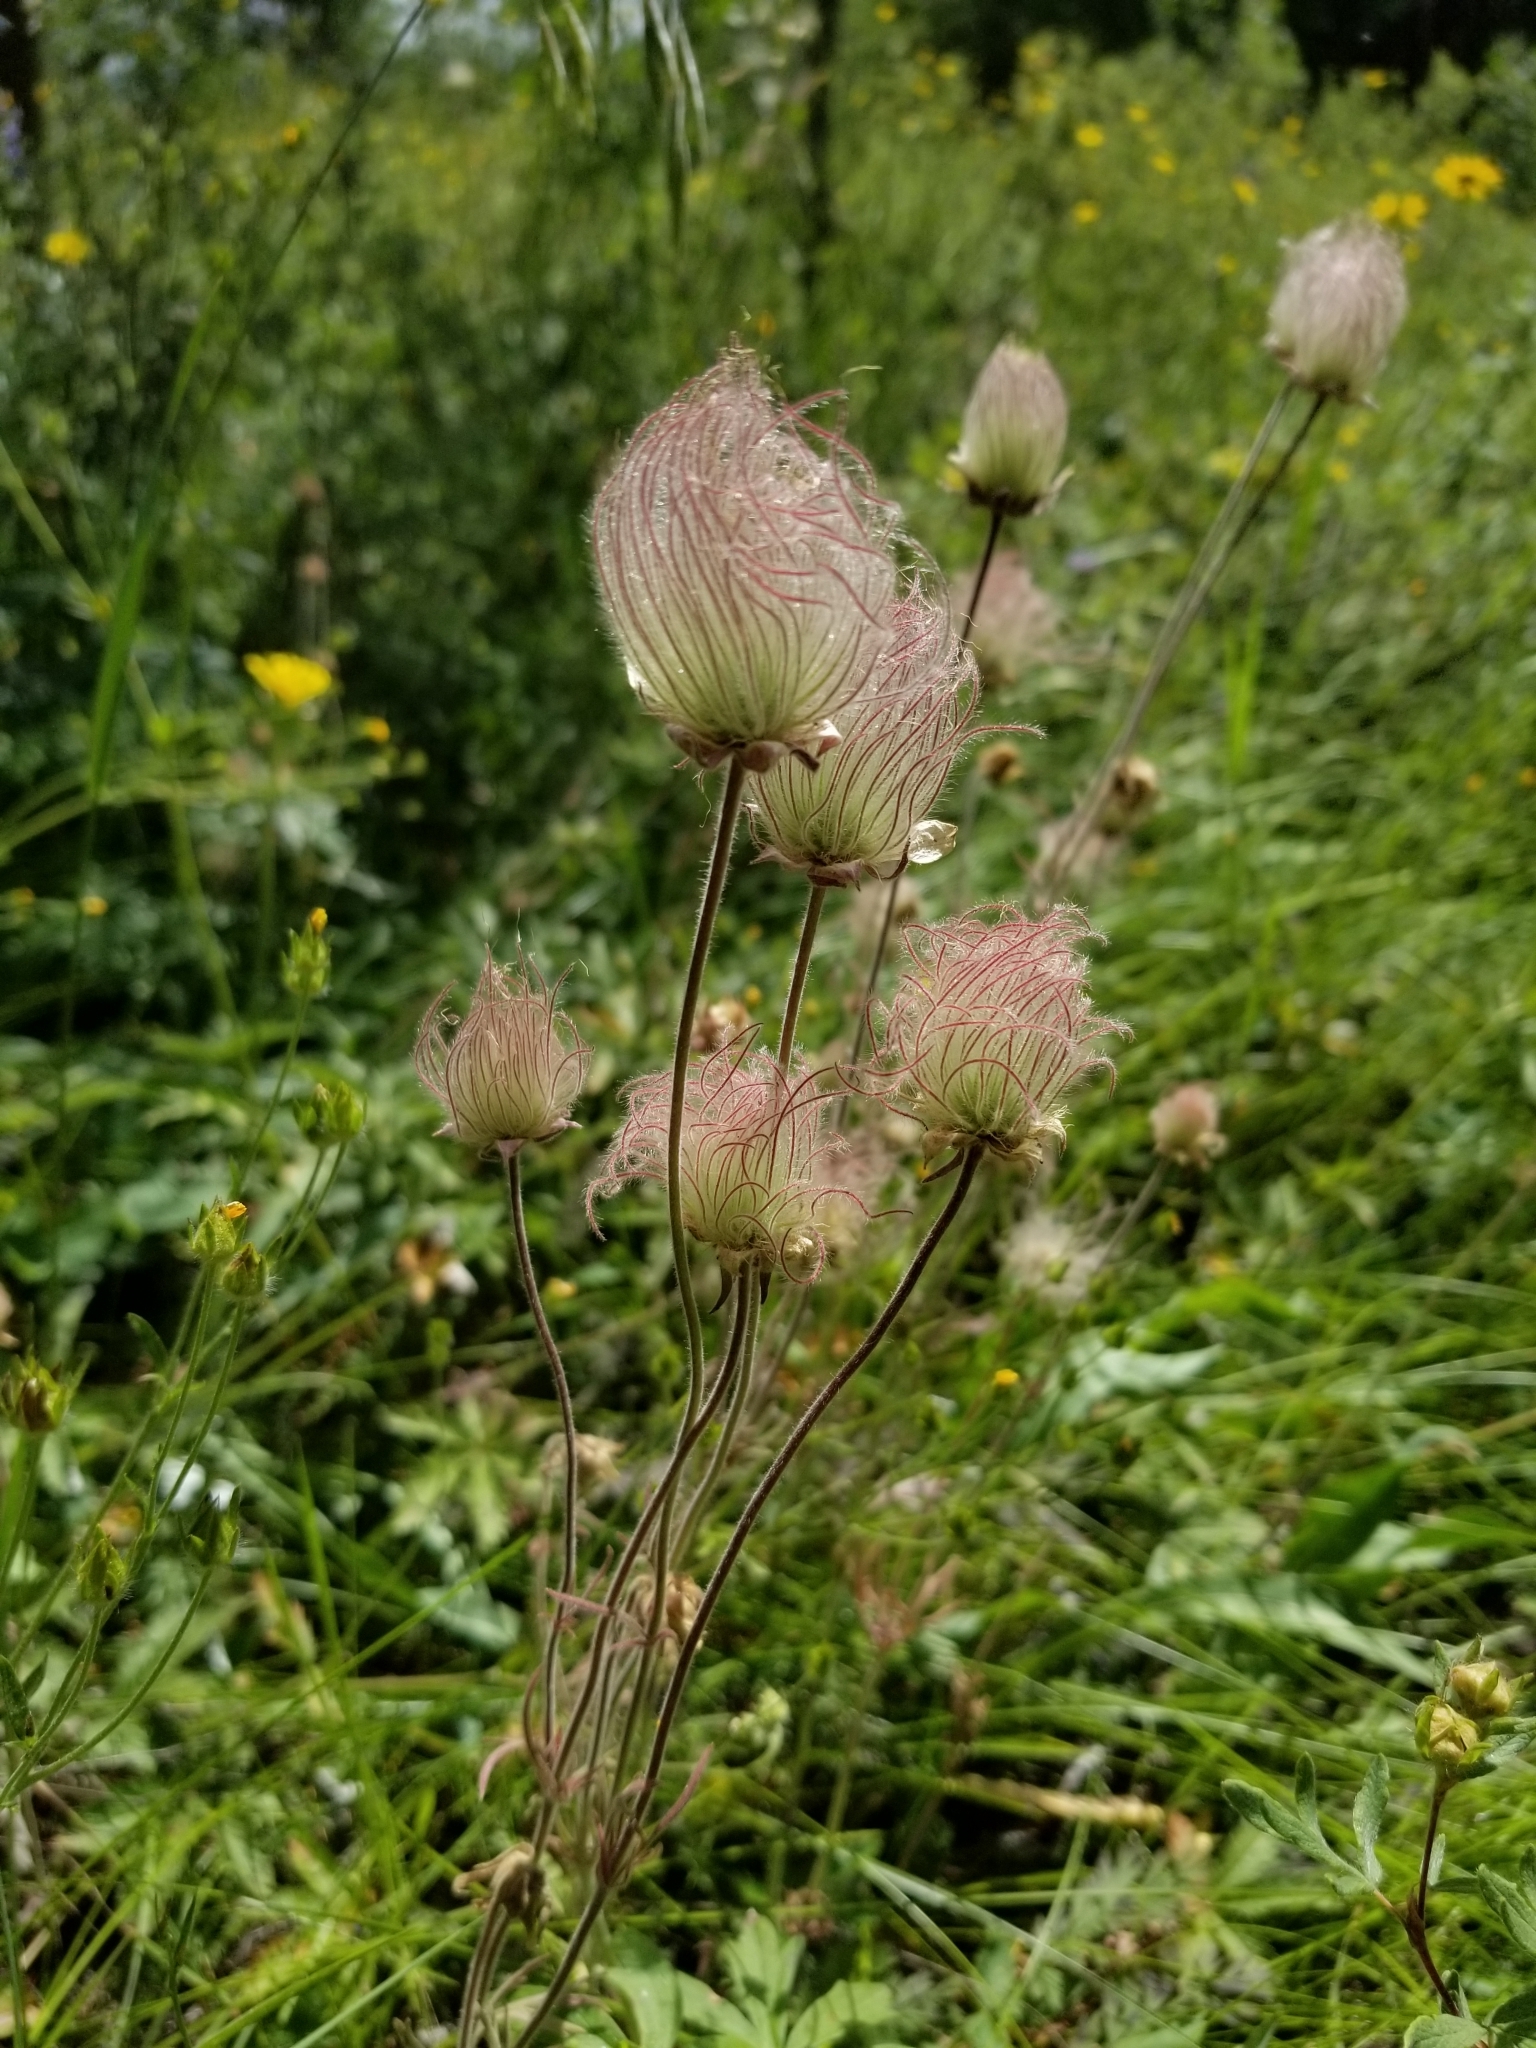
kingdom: Plantae
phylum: Tracheophyta
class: Magnoliopsida
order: Rosales
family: Rosaceae
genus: Geum
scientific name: Geum triflorum
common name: Old man's whiskers
